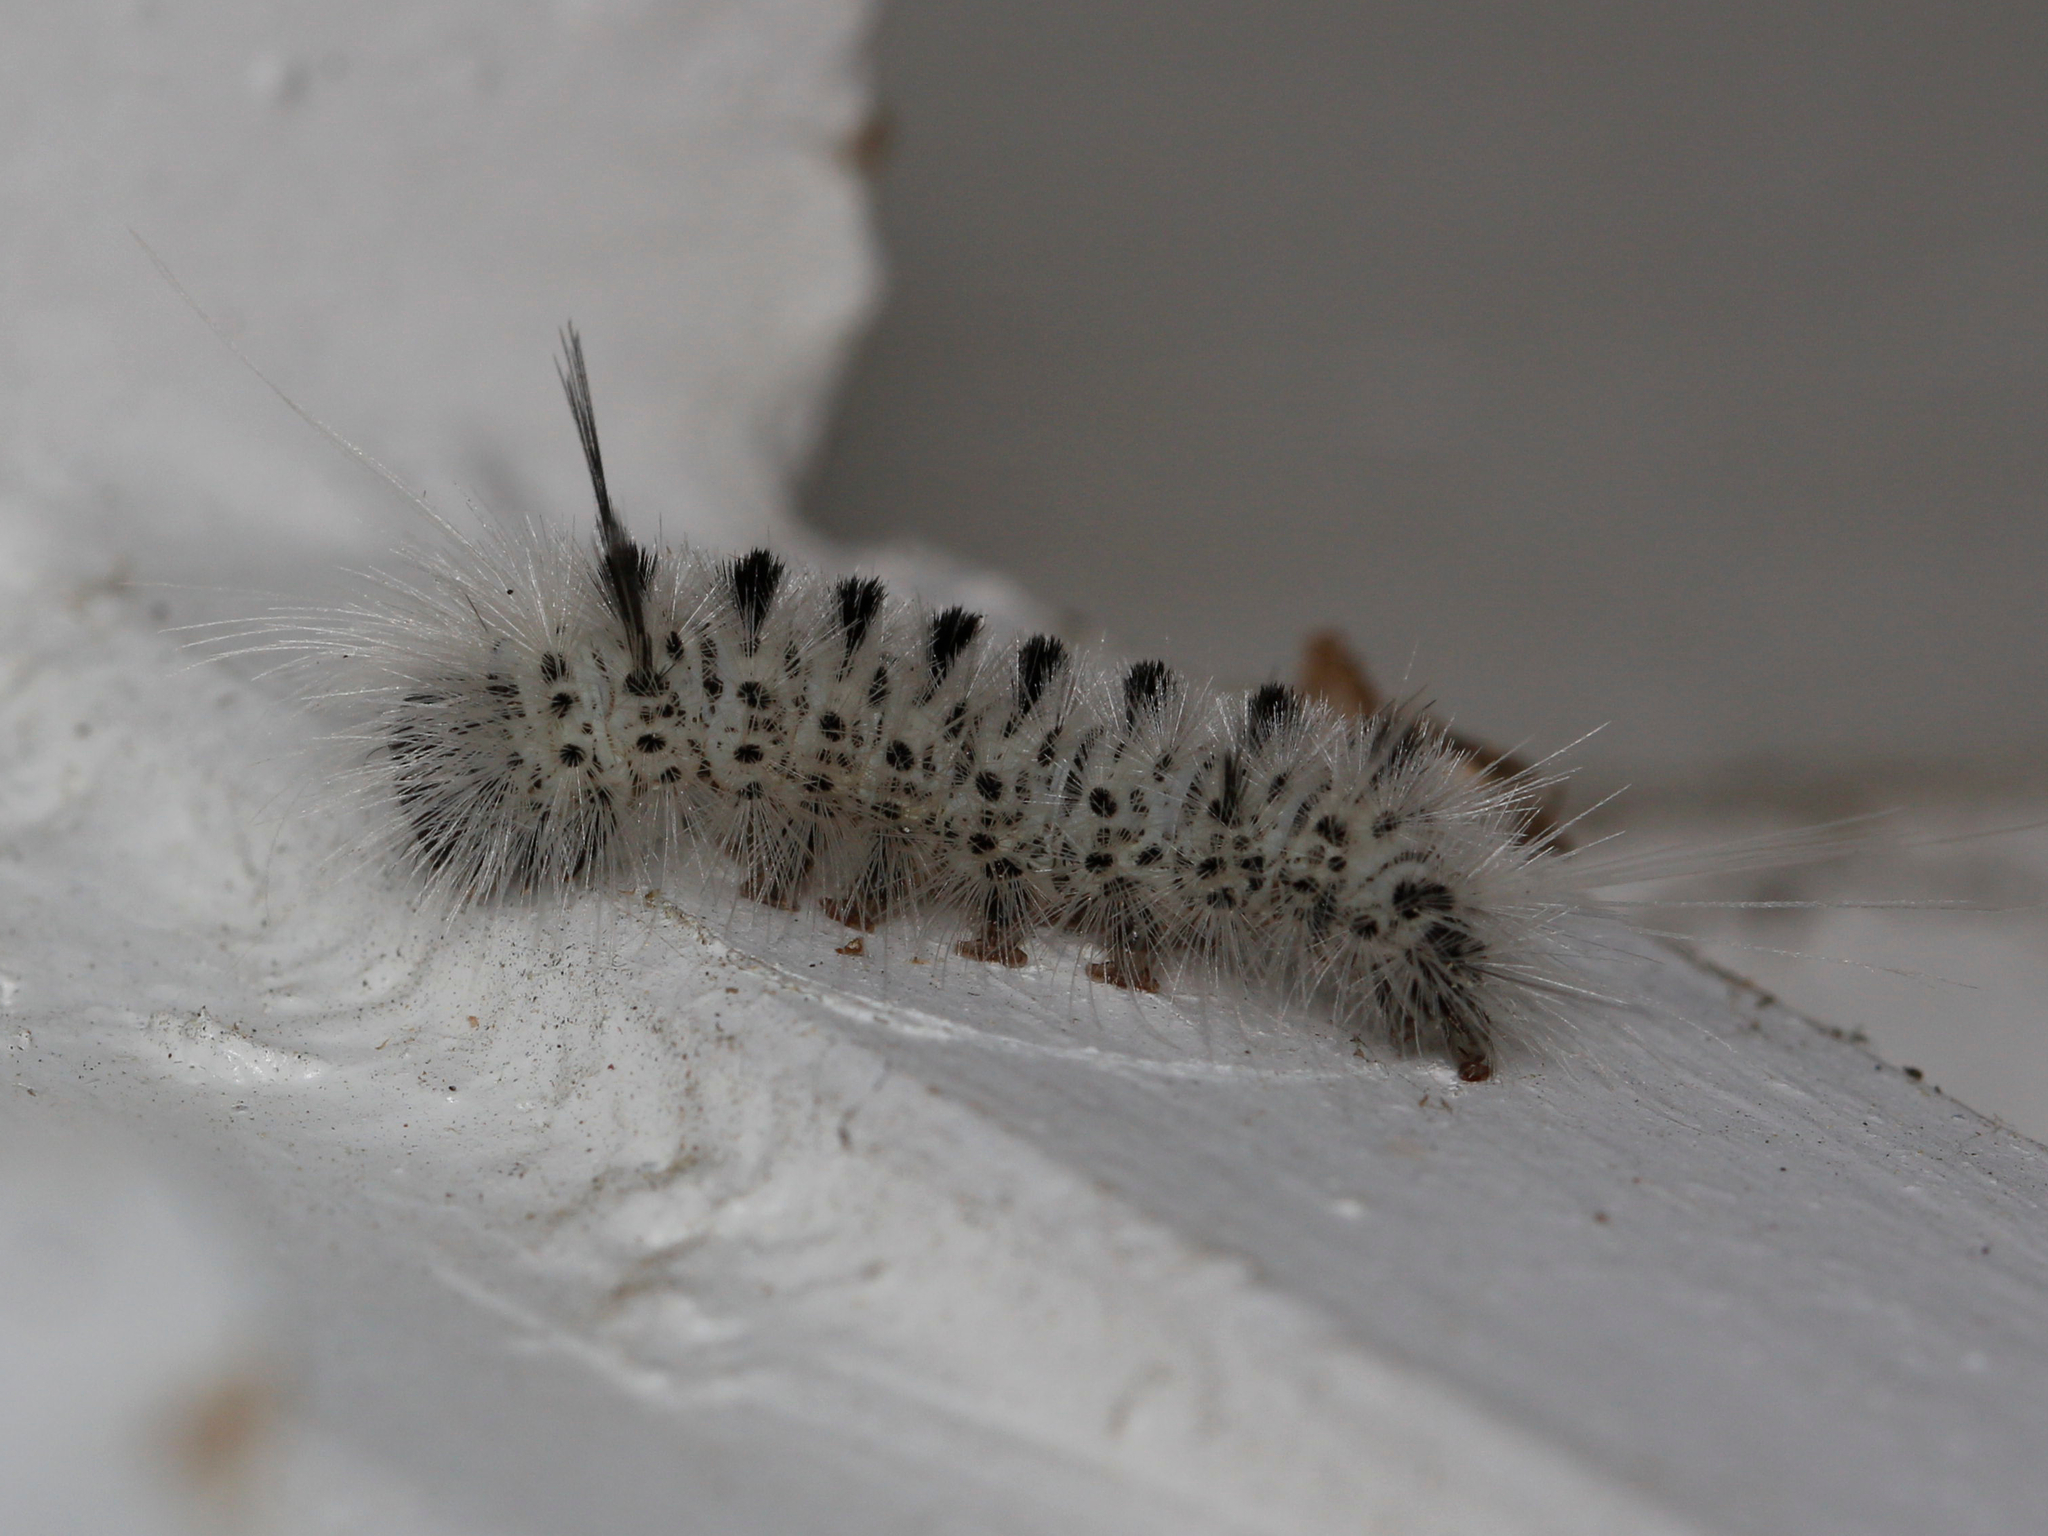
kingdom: Animalia
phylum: Arthropoda
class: Insecta
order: Lepidoptera
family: Erebidae
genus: Lophocampa
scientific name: Lophocampa caryae
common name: Hickory tussock moth
